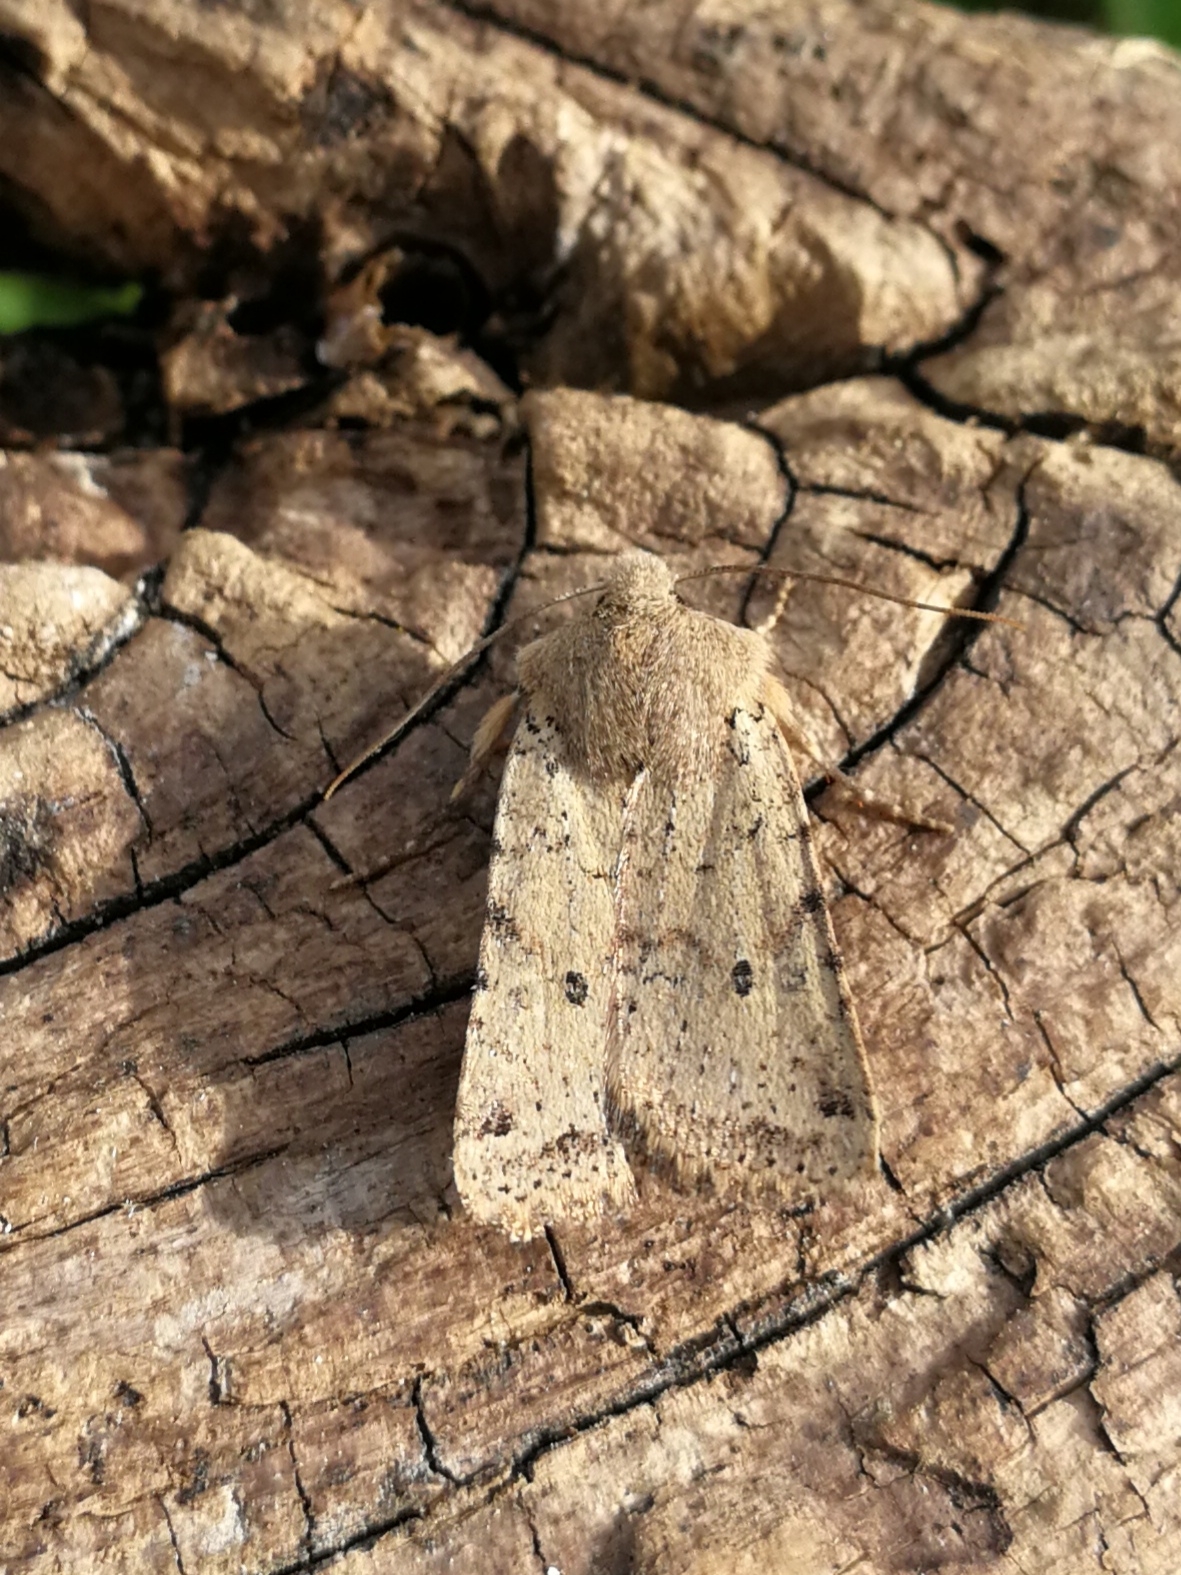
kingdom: Animalia
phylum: Arthropoda
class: Insecta
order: Lepidoptera
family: Noctuidae
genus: Agrochola
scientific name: Agrochola ruticilla
